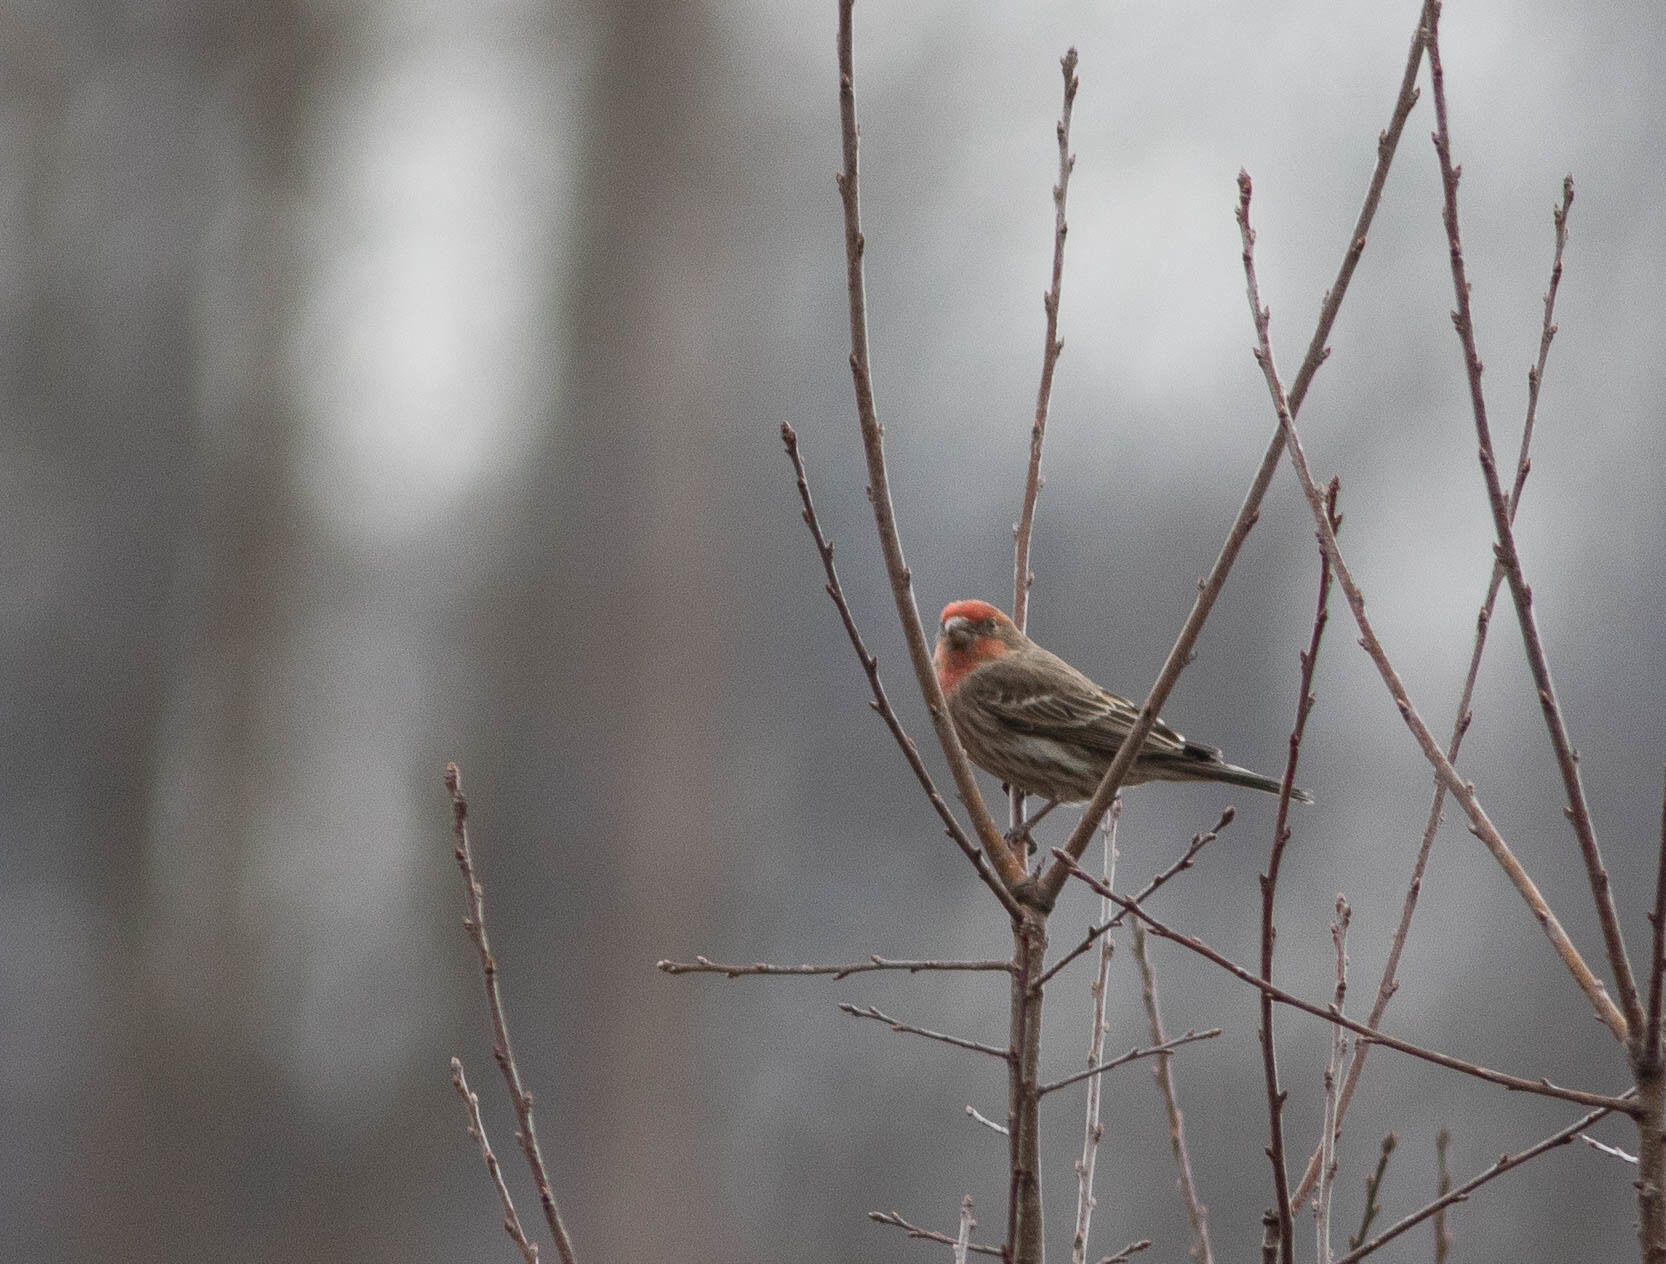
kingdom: Animalia
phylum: Chordata
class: Aves
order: Passeriformes
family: Fringillidae
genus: Haemorhous
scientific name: Haemorhous mexicanus
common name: House finch
